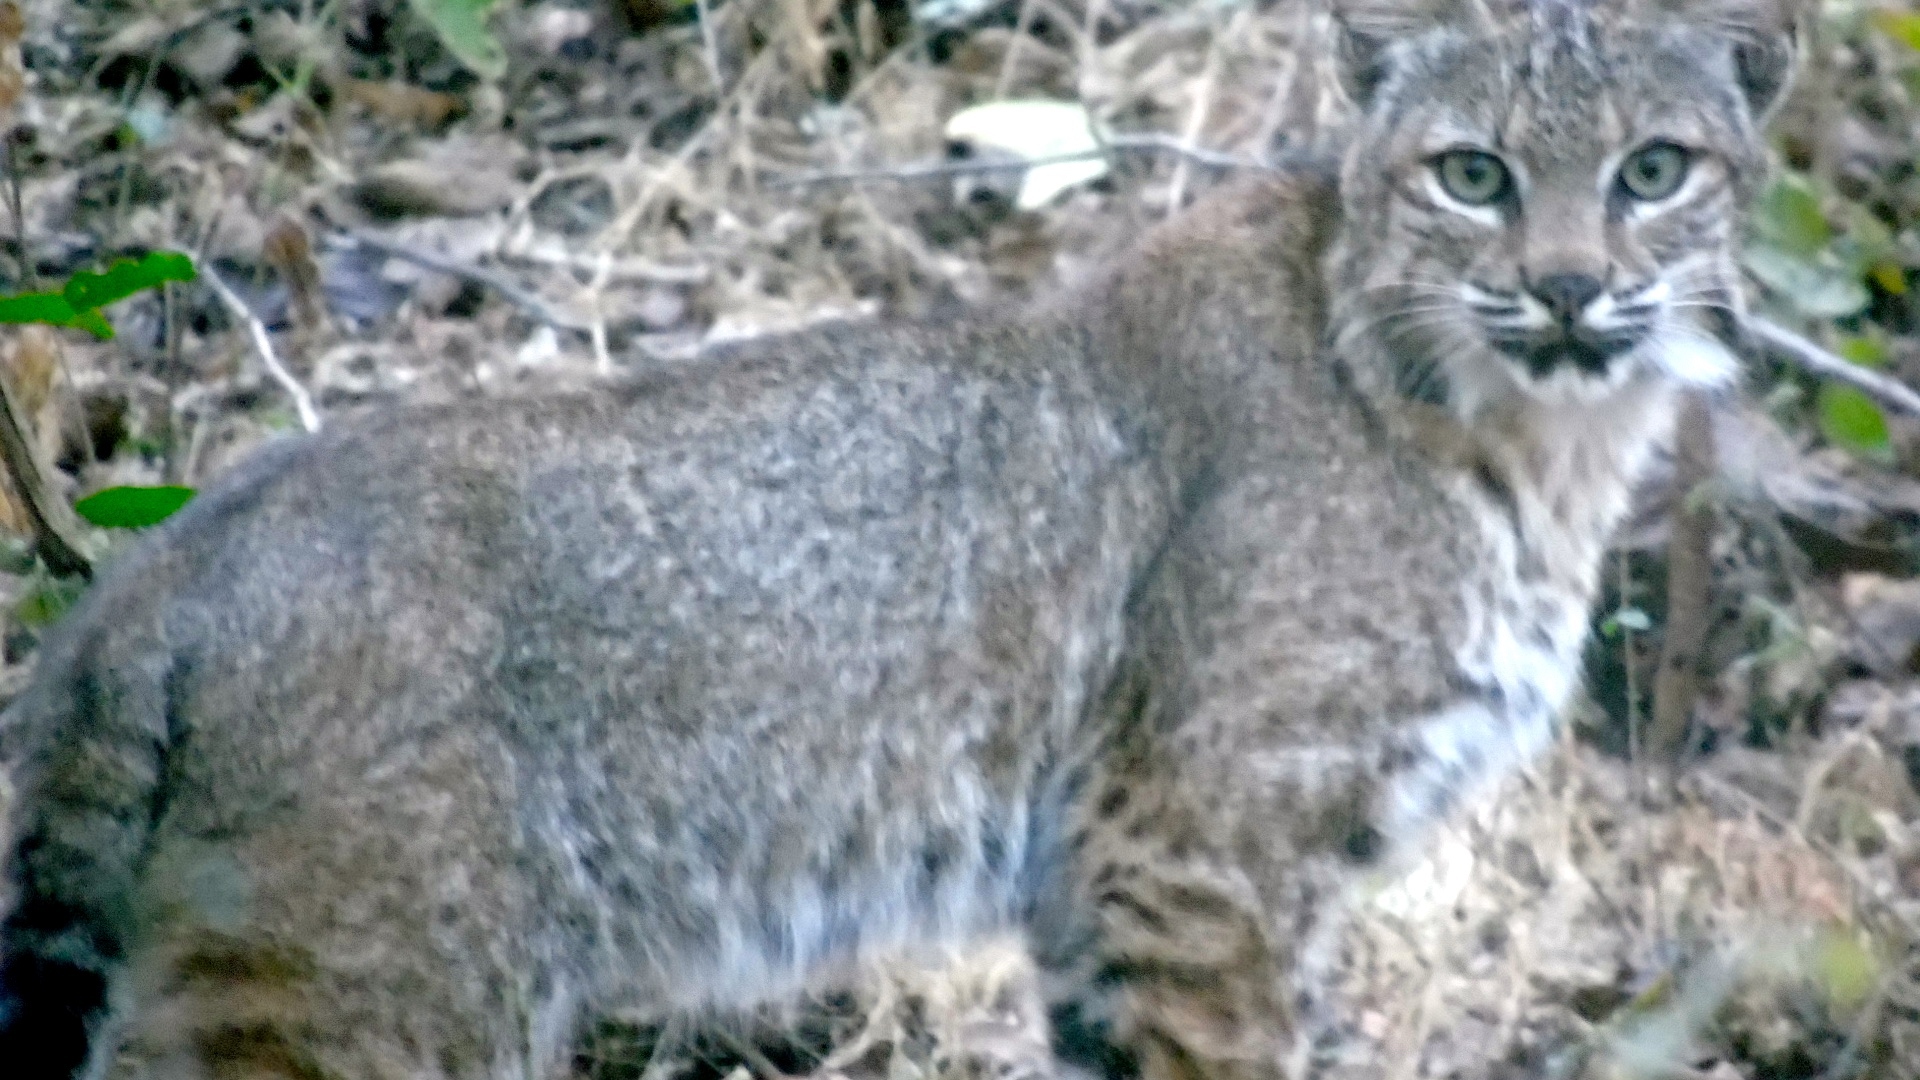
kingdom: Animalia
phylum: Chordata
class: Mammalia
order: Carnivora
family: Felidae
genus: Lynx
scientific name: Lynx rufus
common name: Bobcat
